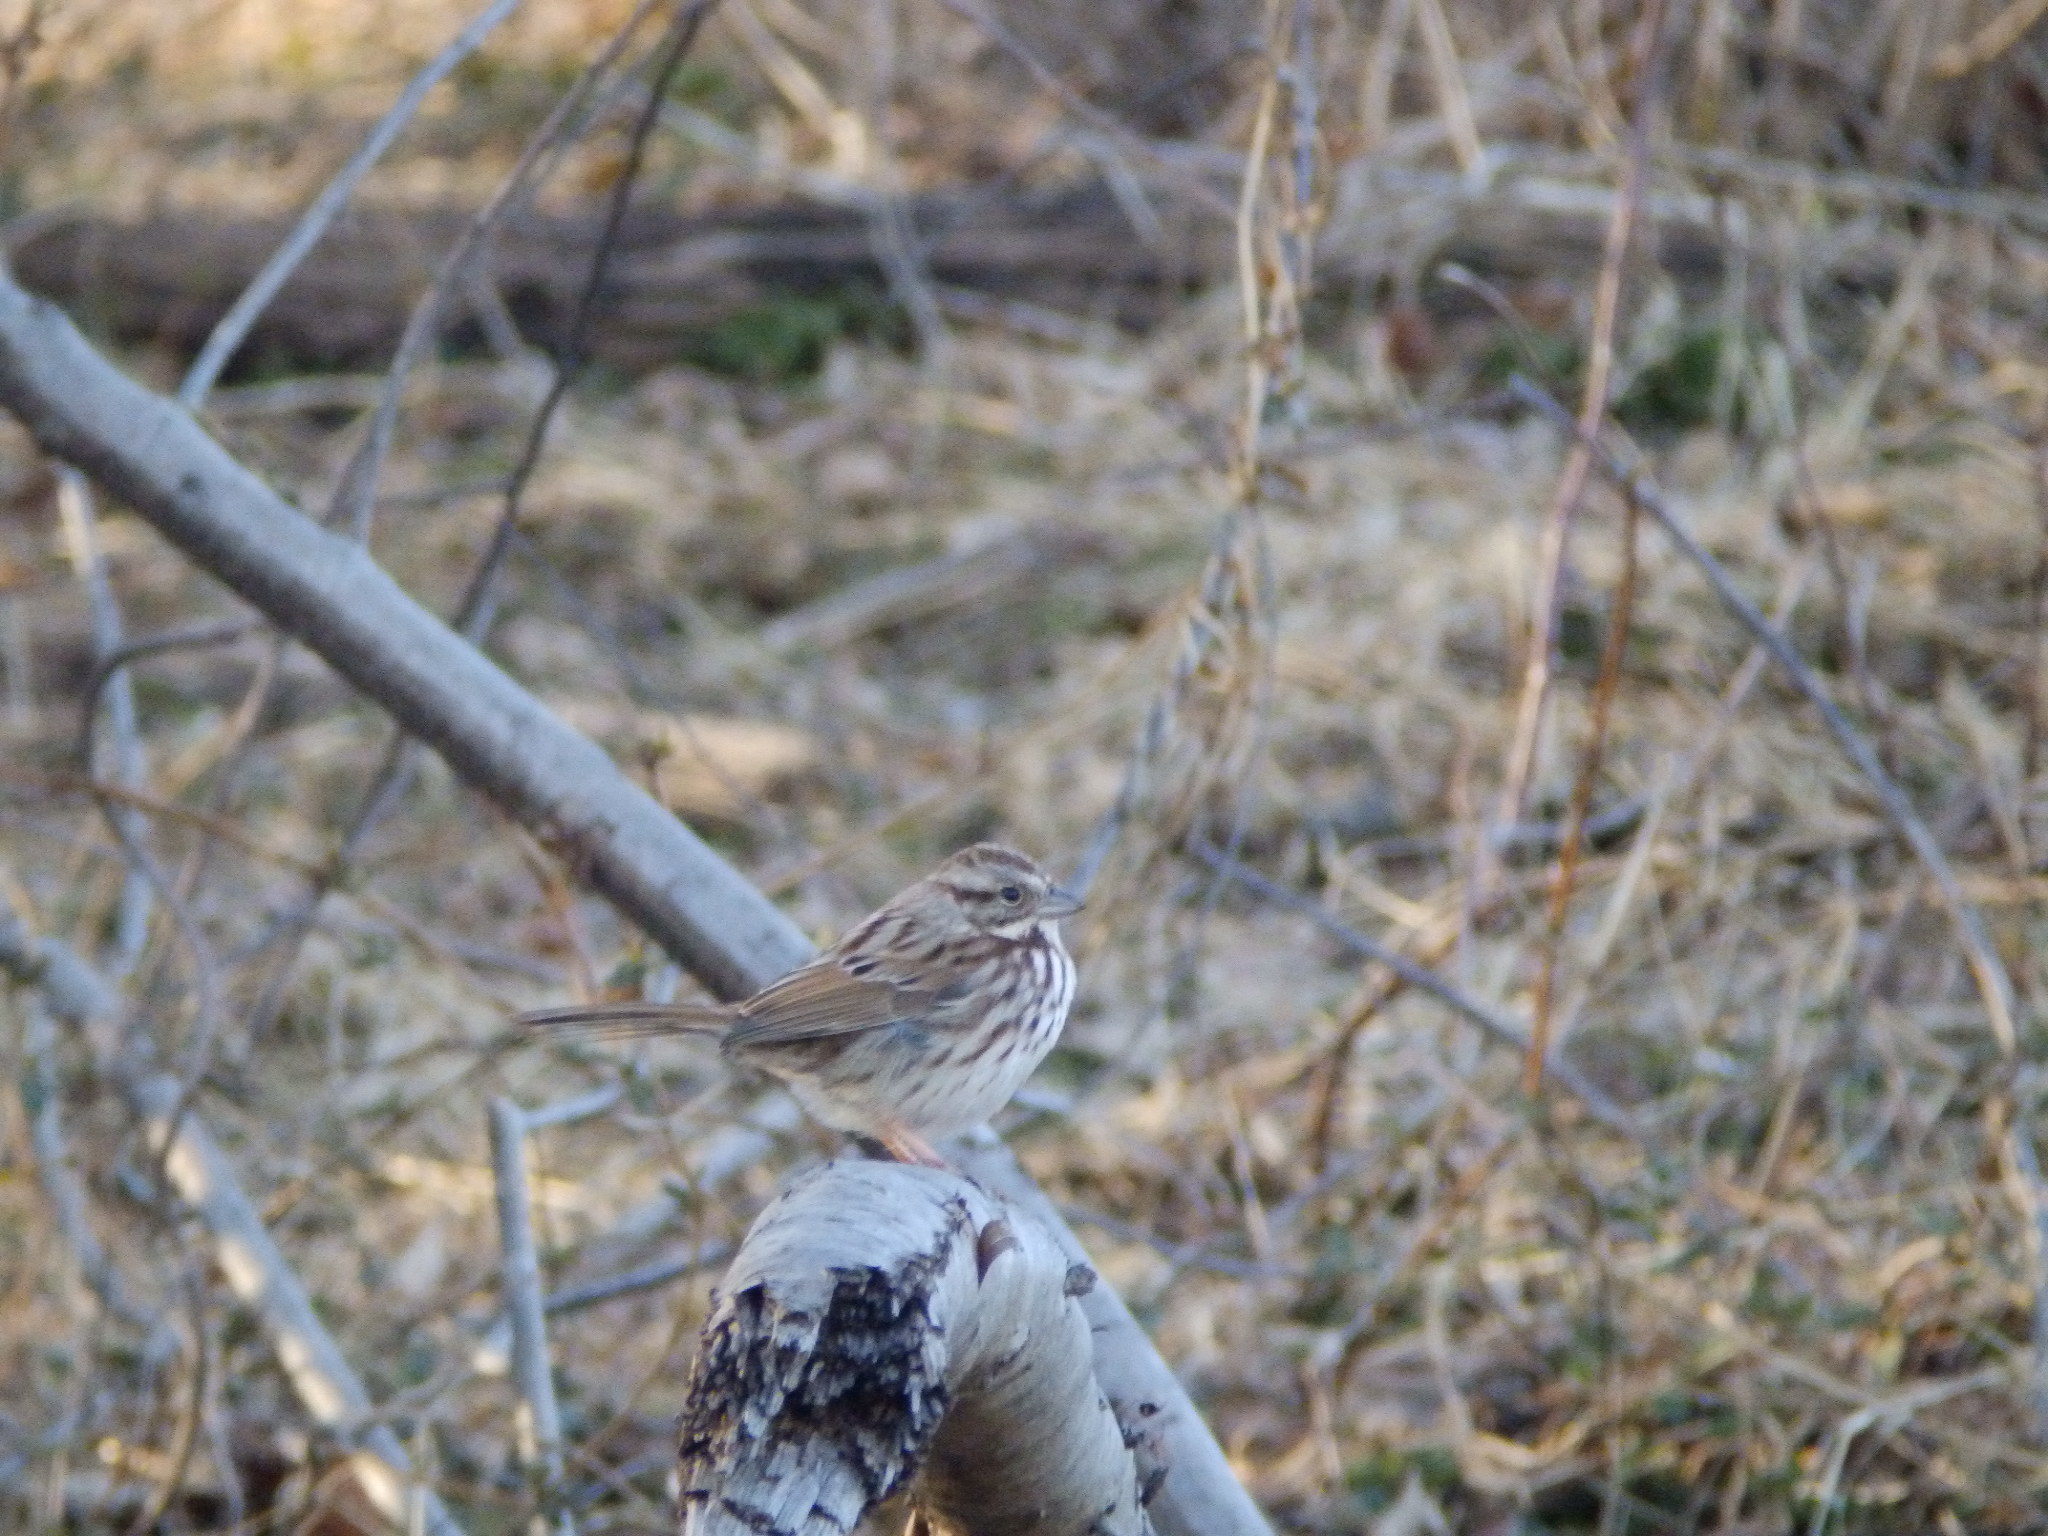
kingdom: Animalia
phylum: Chordata
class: Aves
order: Passeriformes
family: Passerellidae
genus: Melospiza
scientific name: Melospiza melodia
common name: Song sparrow
